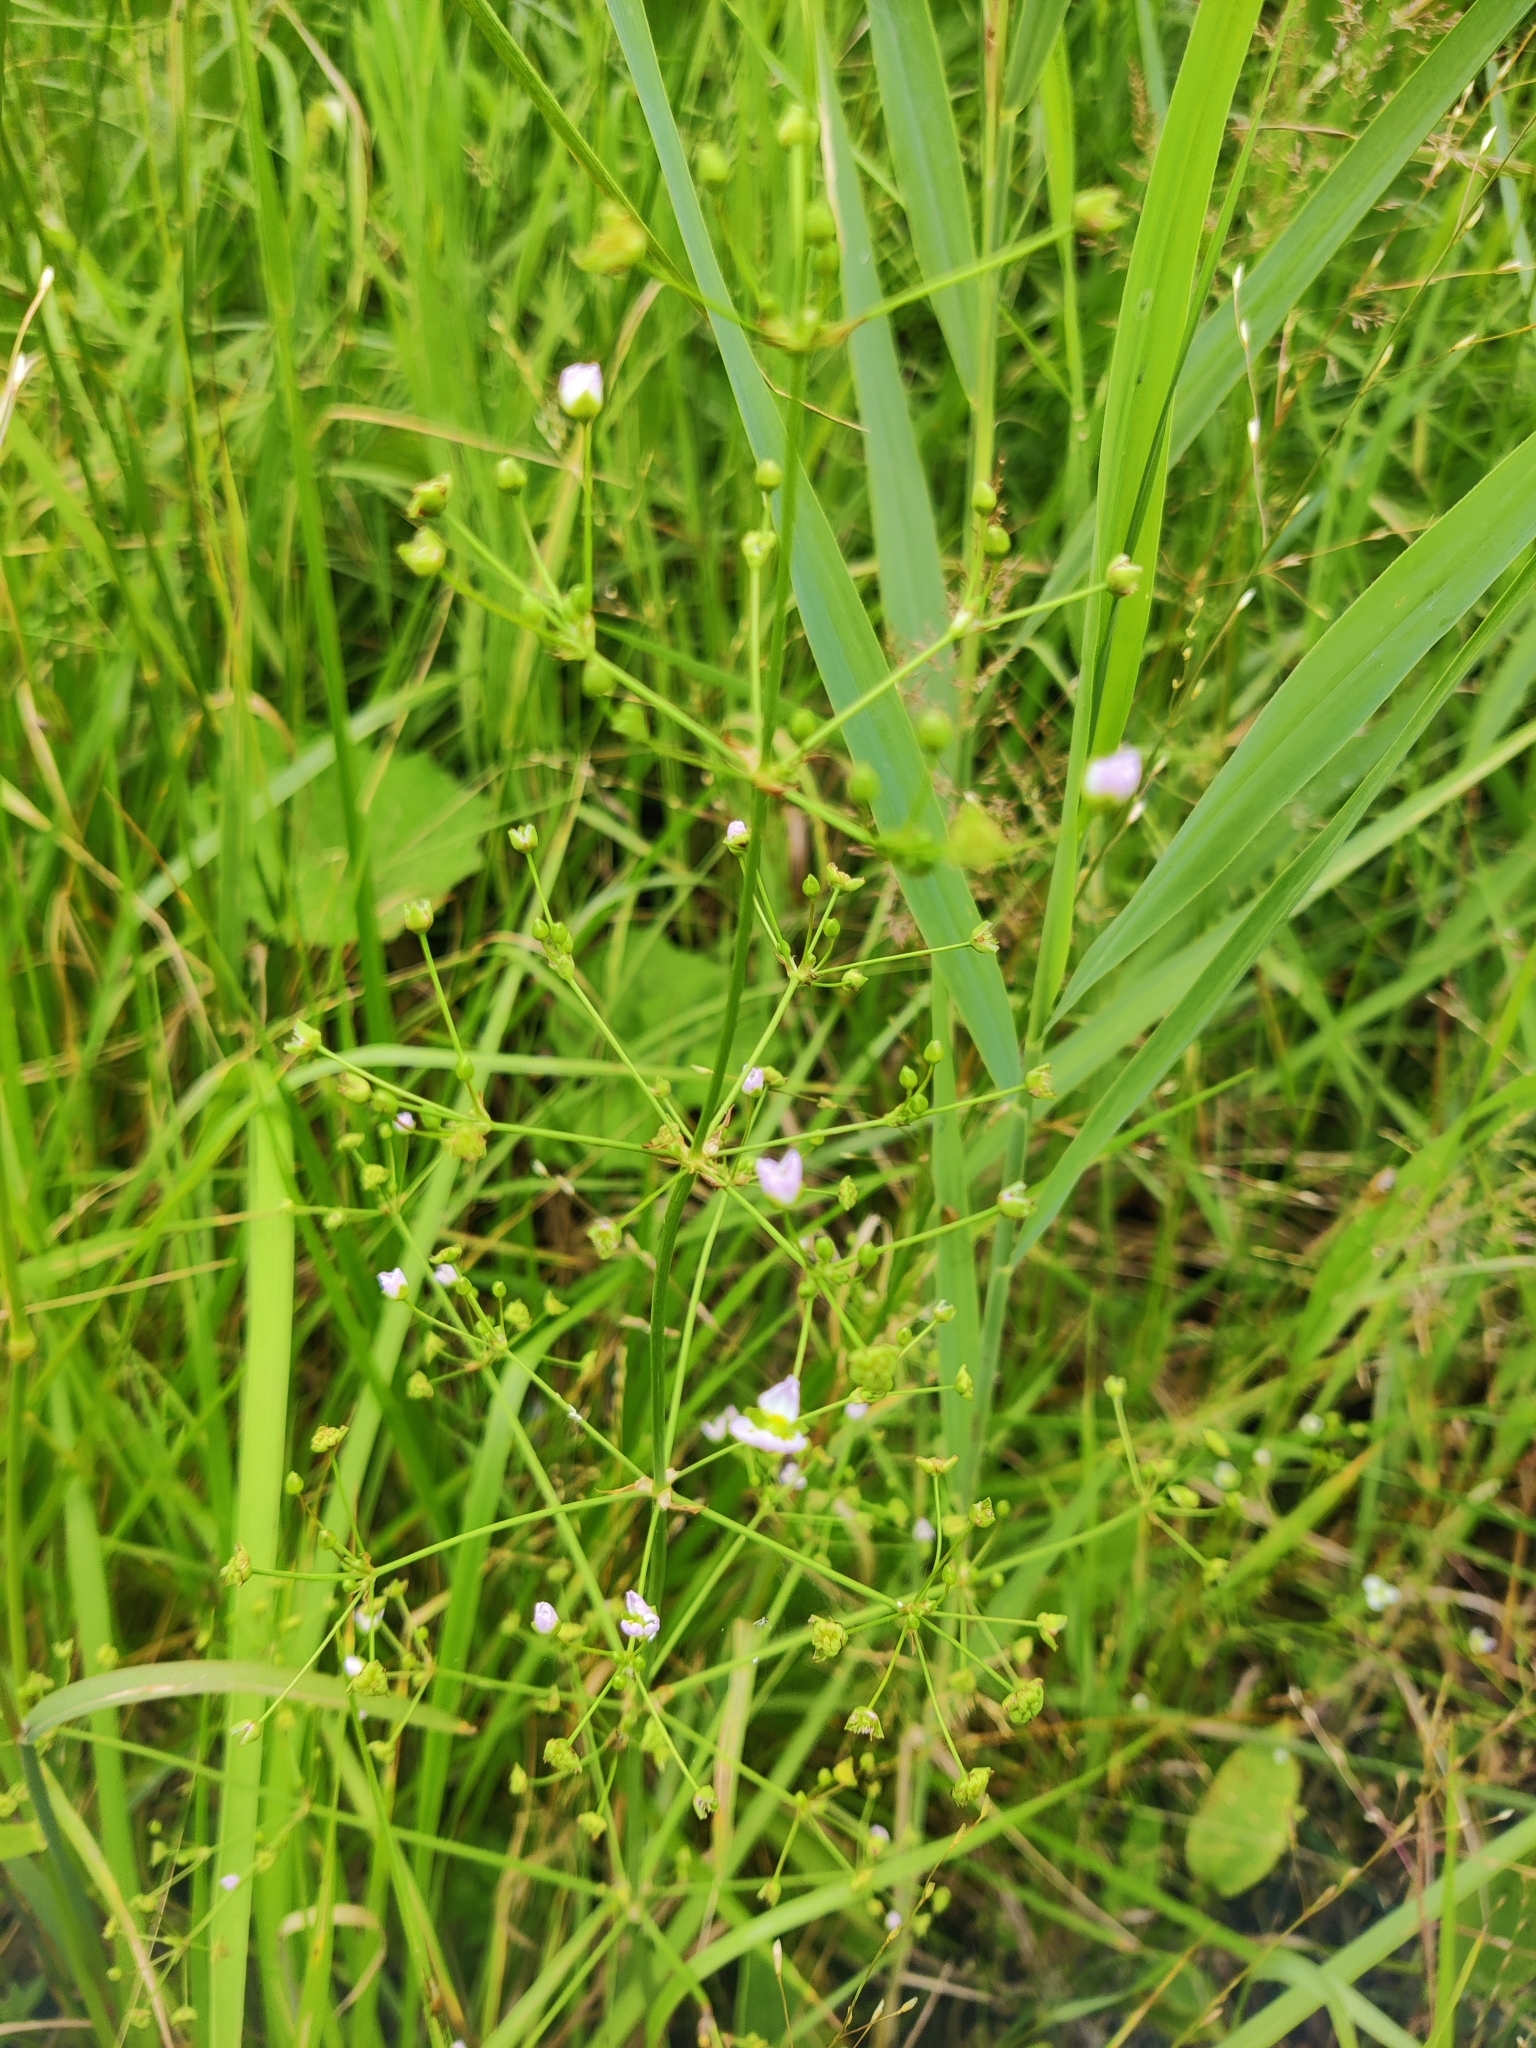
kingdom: Plantae
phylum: Tracheophyta
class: Liliopsida
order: Alismatales
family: Alismataceae
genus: Alisma
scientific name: Alisma plantago-aquatica
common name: Water-plantain
